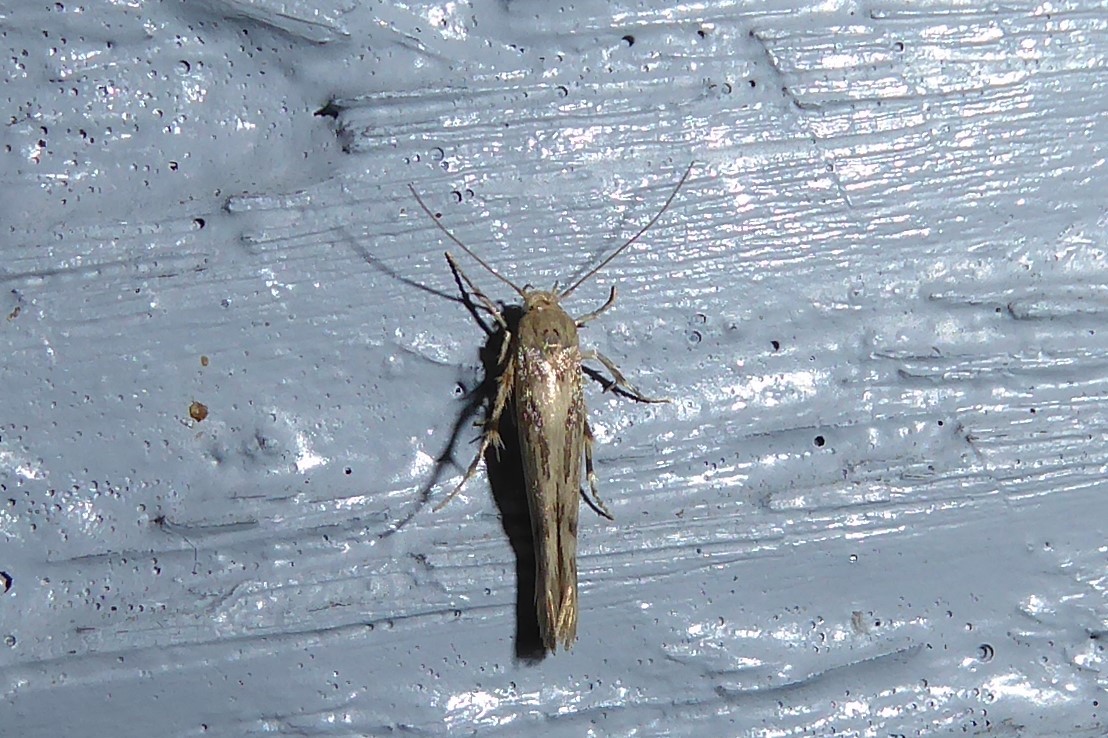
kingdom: Animalia
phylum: Arthropoda
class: Insecta
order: Lepidoptera
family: Stathmopodidae
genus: Stathmopoda
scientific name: Stathmopoda plumbiflua
